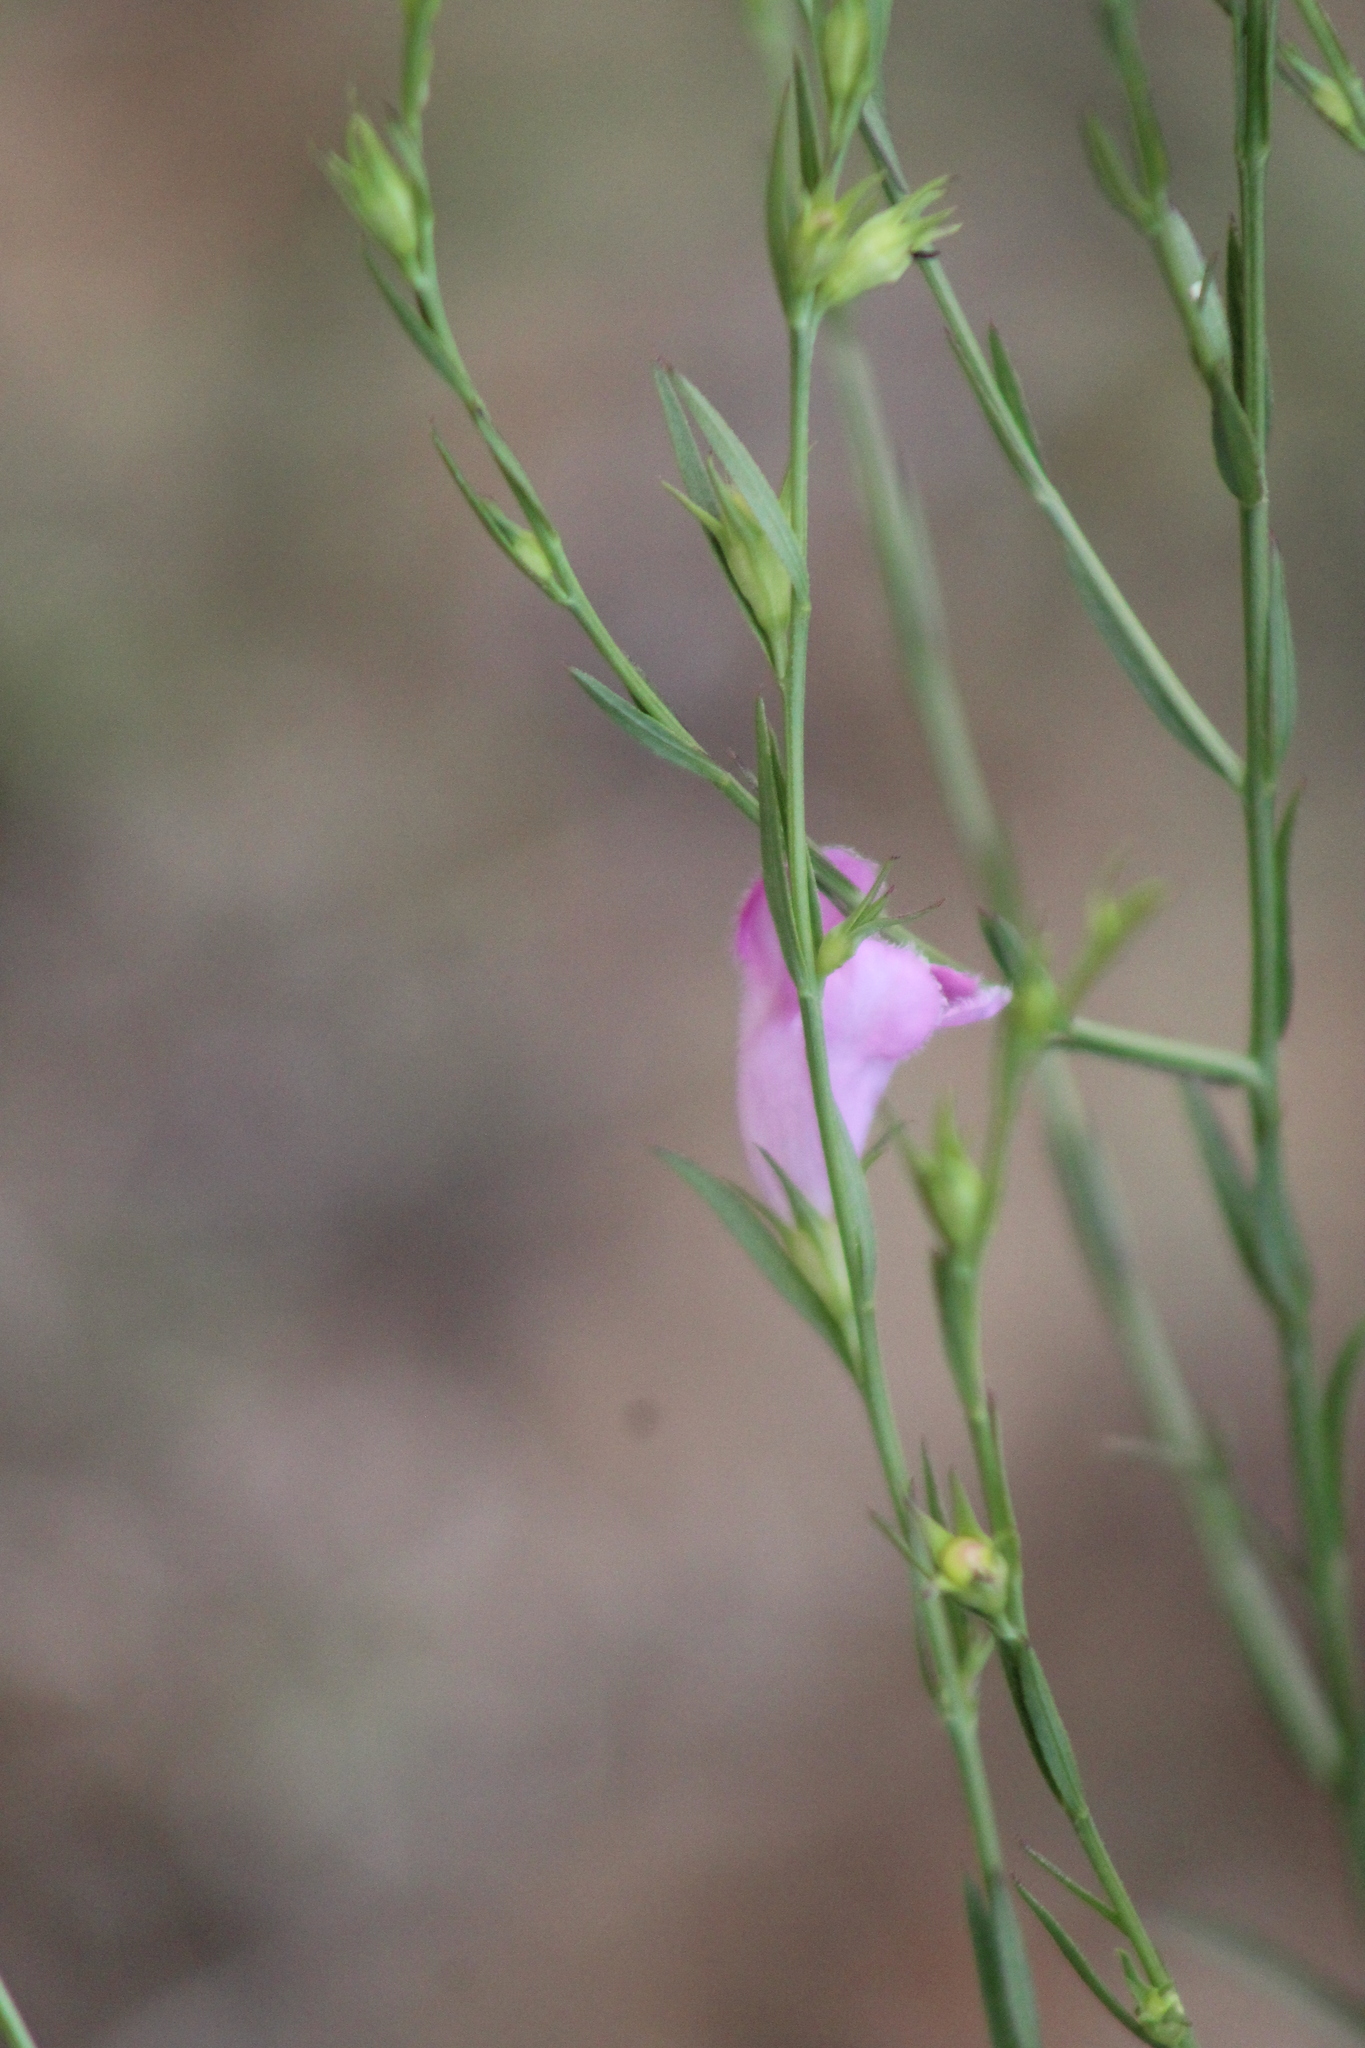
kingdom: Plantae
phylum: Tracheophyta
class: Magnoliopsida
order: Lamiales
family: Orobanchaceae
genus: Agalinis
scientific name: Agalinis heterophylla
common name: Prairie agalinis
